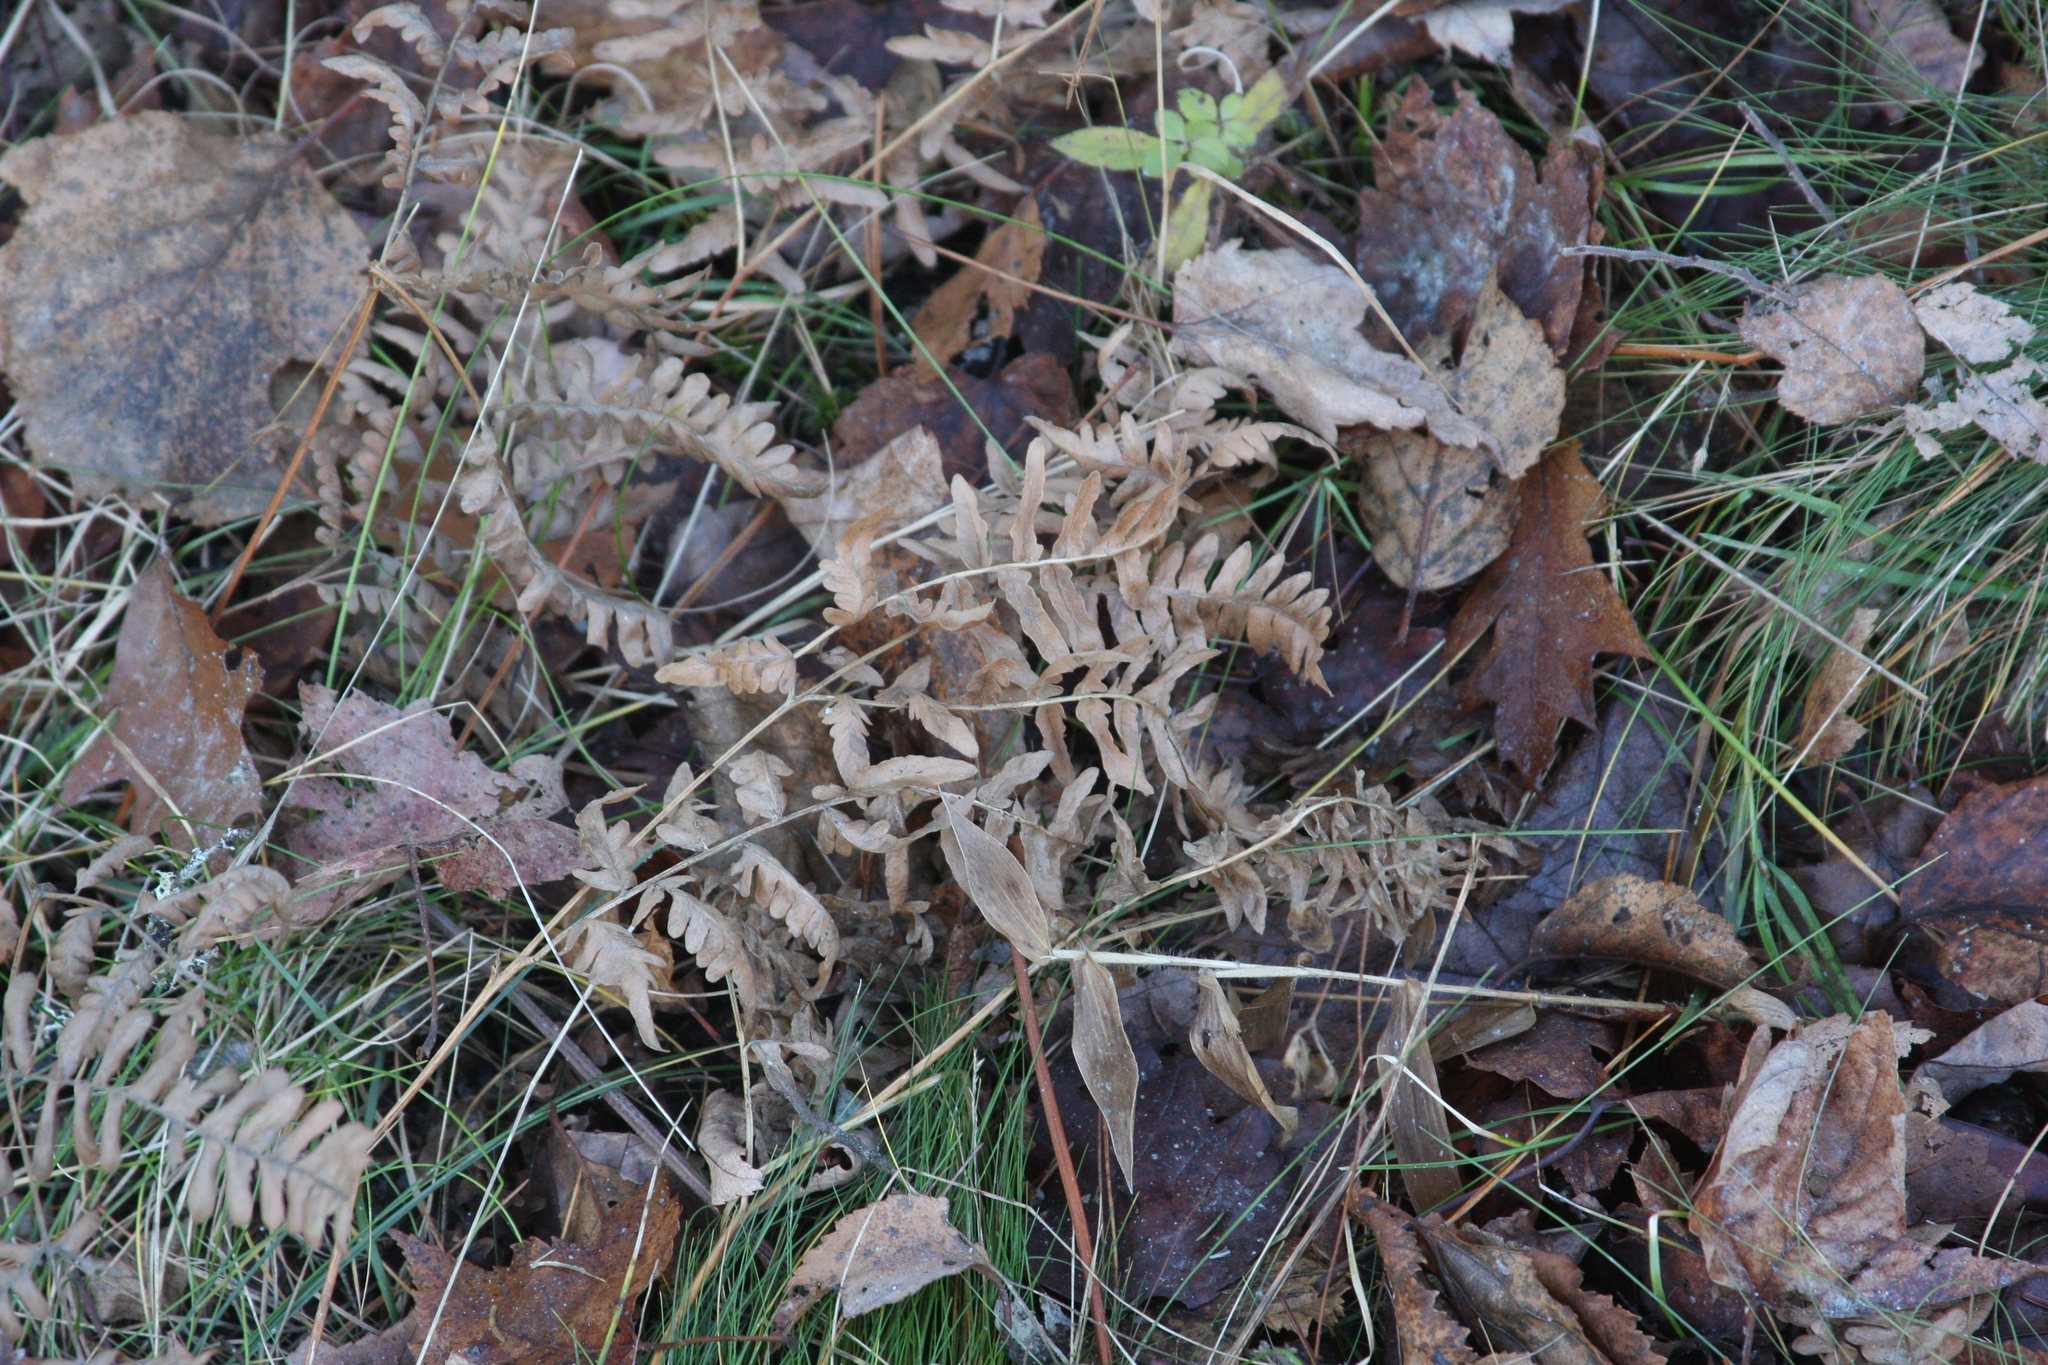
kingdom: Plantae
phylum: Tracheophyta
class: Polypodiopsida
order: Polypodiales
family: Dennstaedtiaceae
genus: Pteridium
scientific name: Pteridium aquilinum
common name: Bracken
